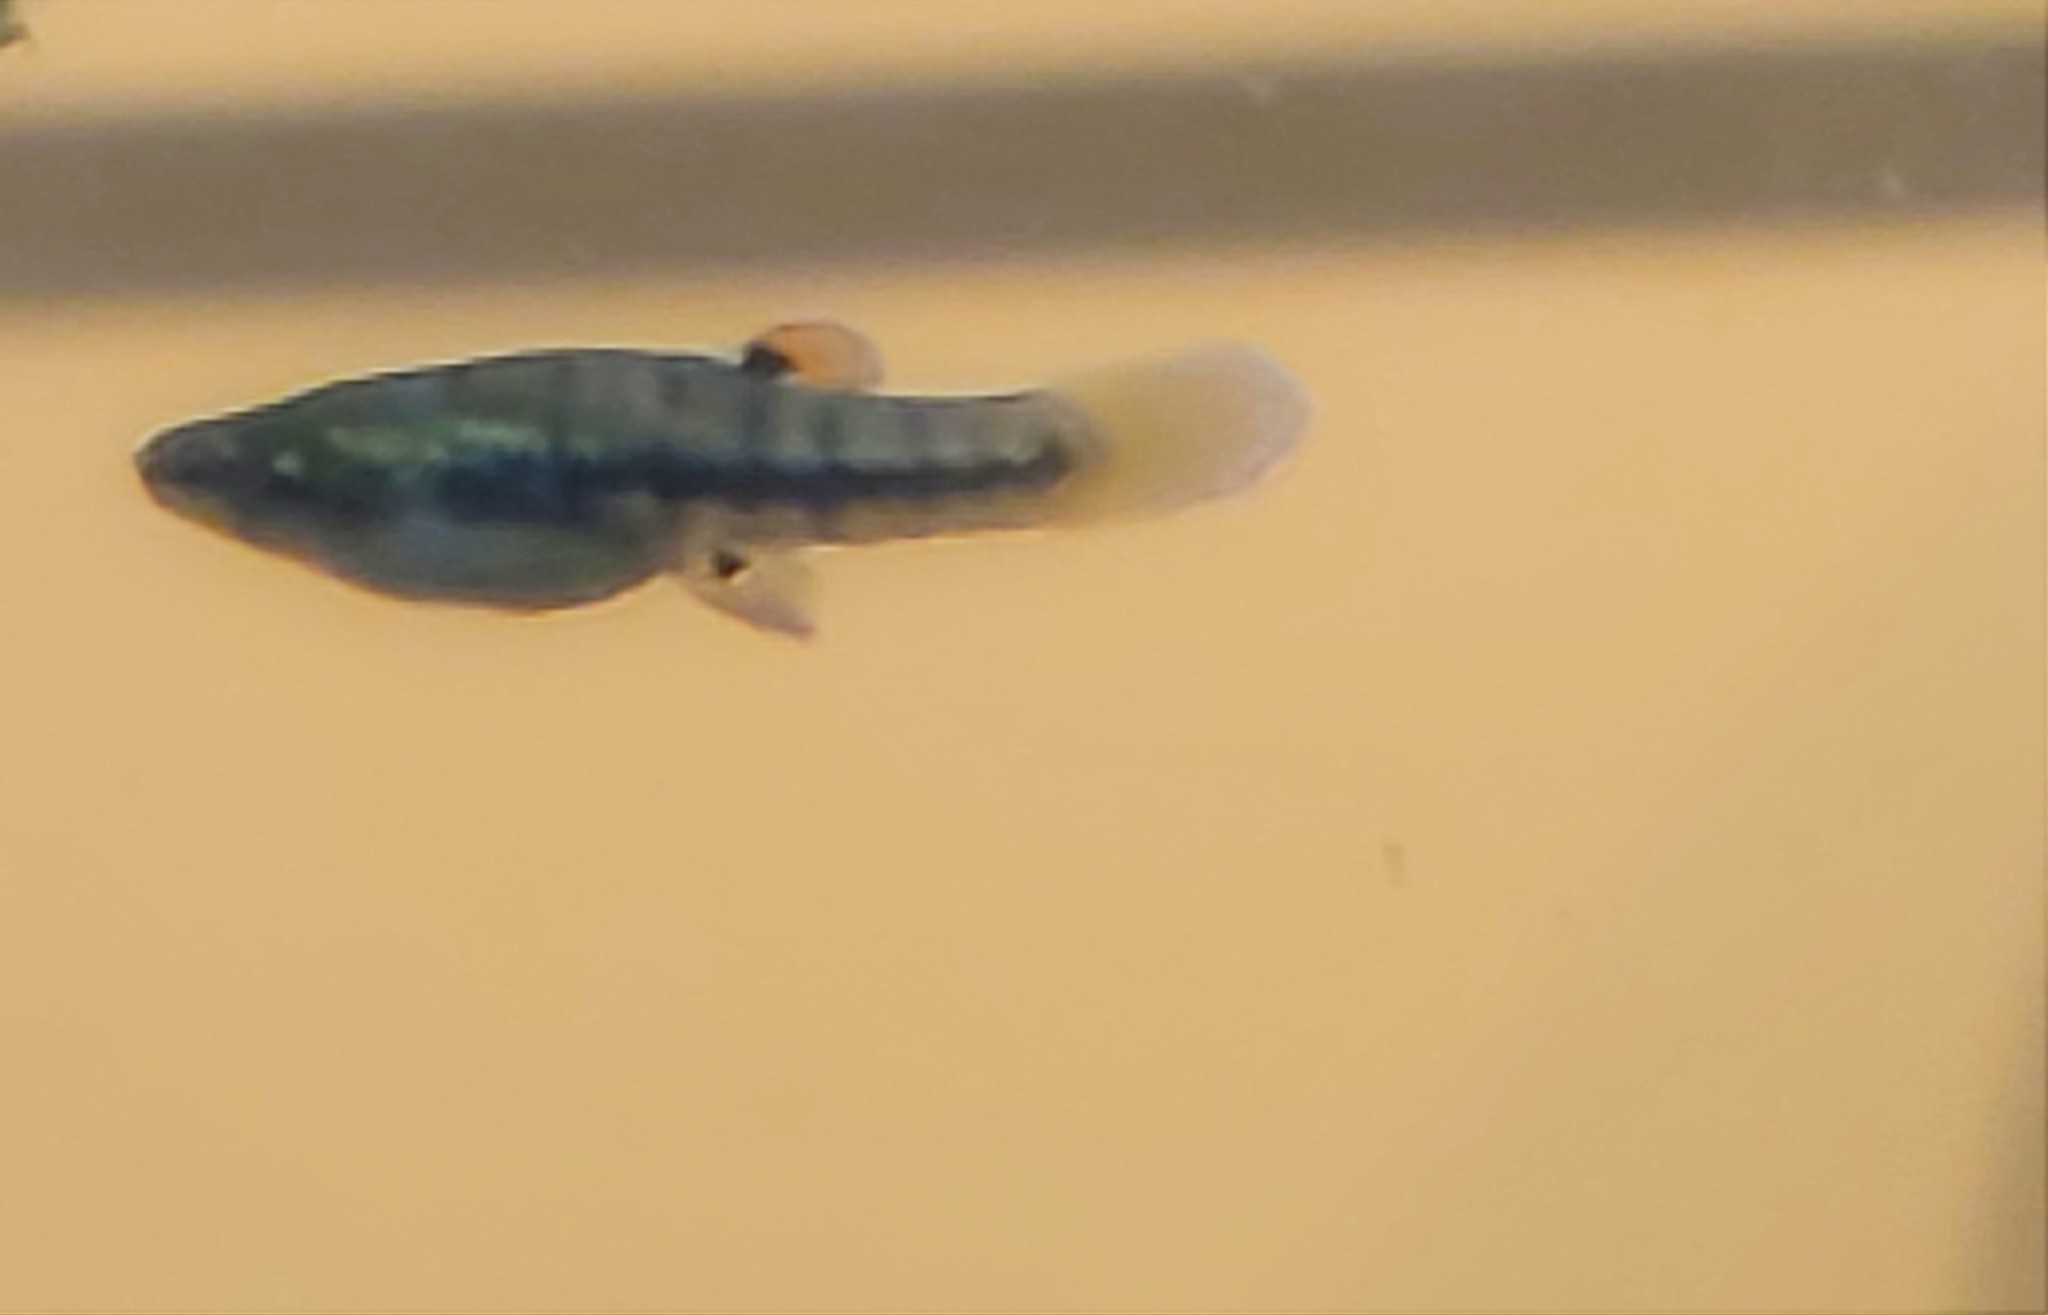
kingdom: Animalia
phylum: Chordata
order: Cyprinodontiformes
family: Poeciliidae
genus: Heterandria
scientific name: Heterandria formosa
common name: Least killifish
